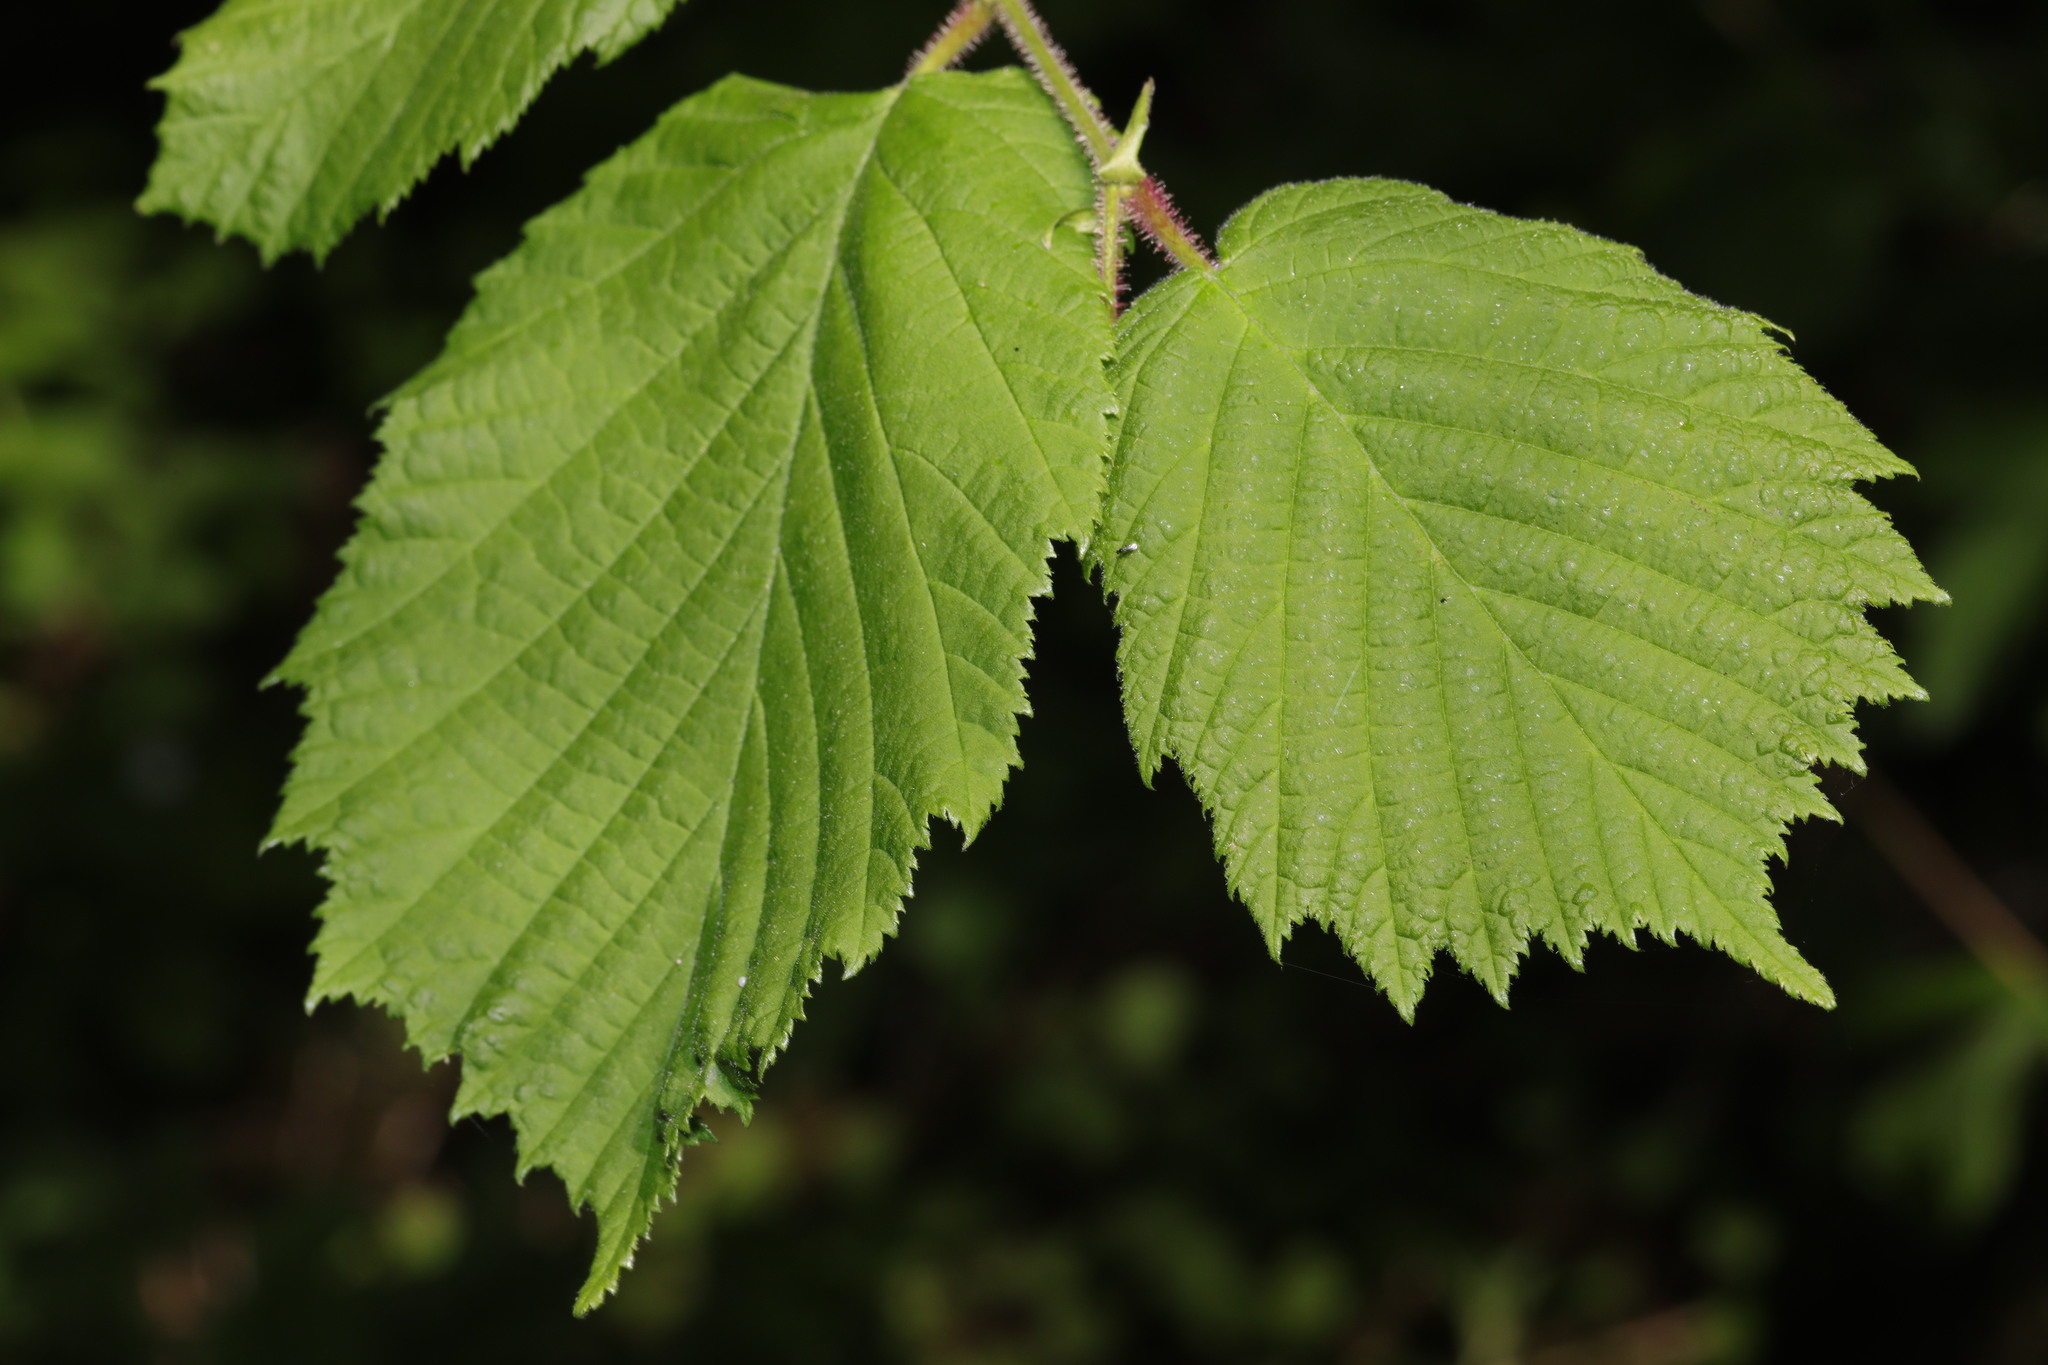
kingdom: Plantae
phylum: Tracheophyta
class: Magnoliopsida
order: Fagales
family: Betulaceae
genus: Corylus
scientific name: Corylus avellana
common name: European hazel
